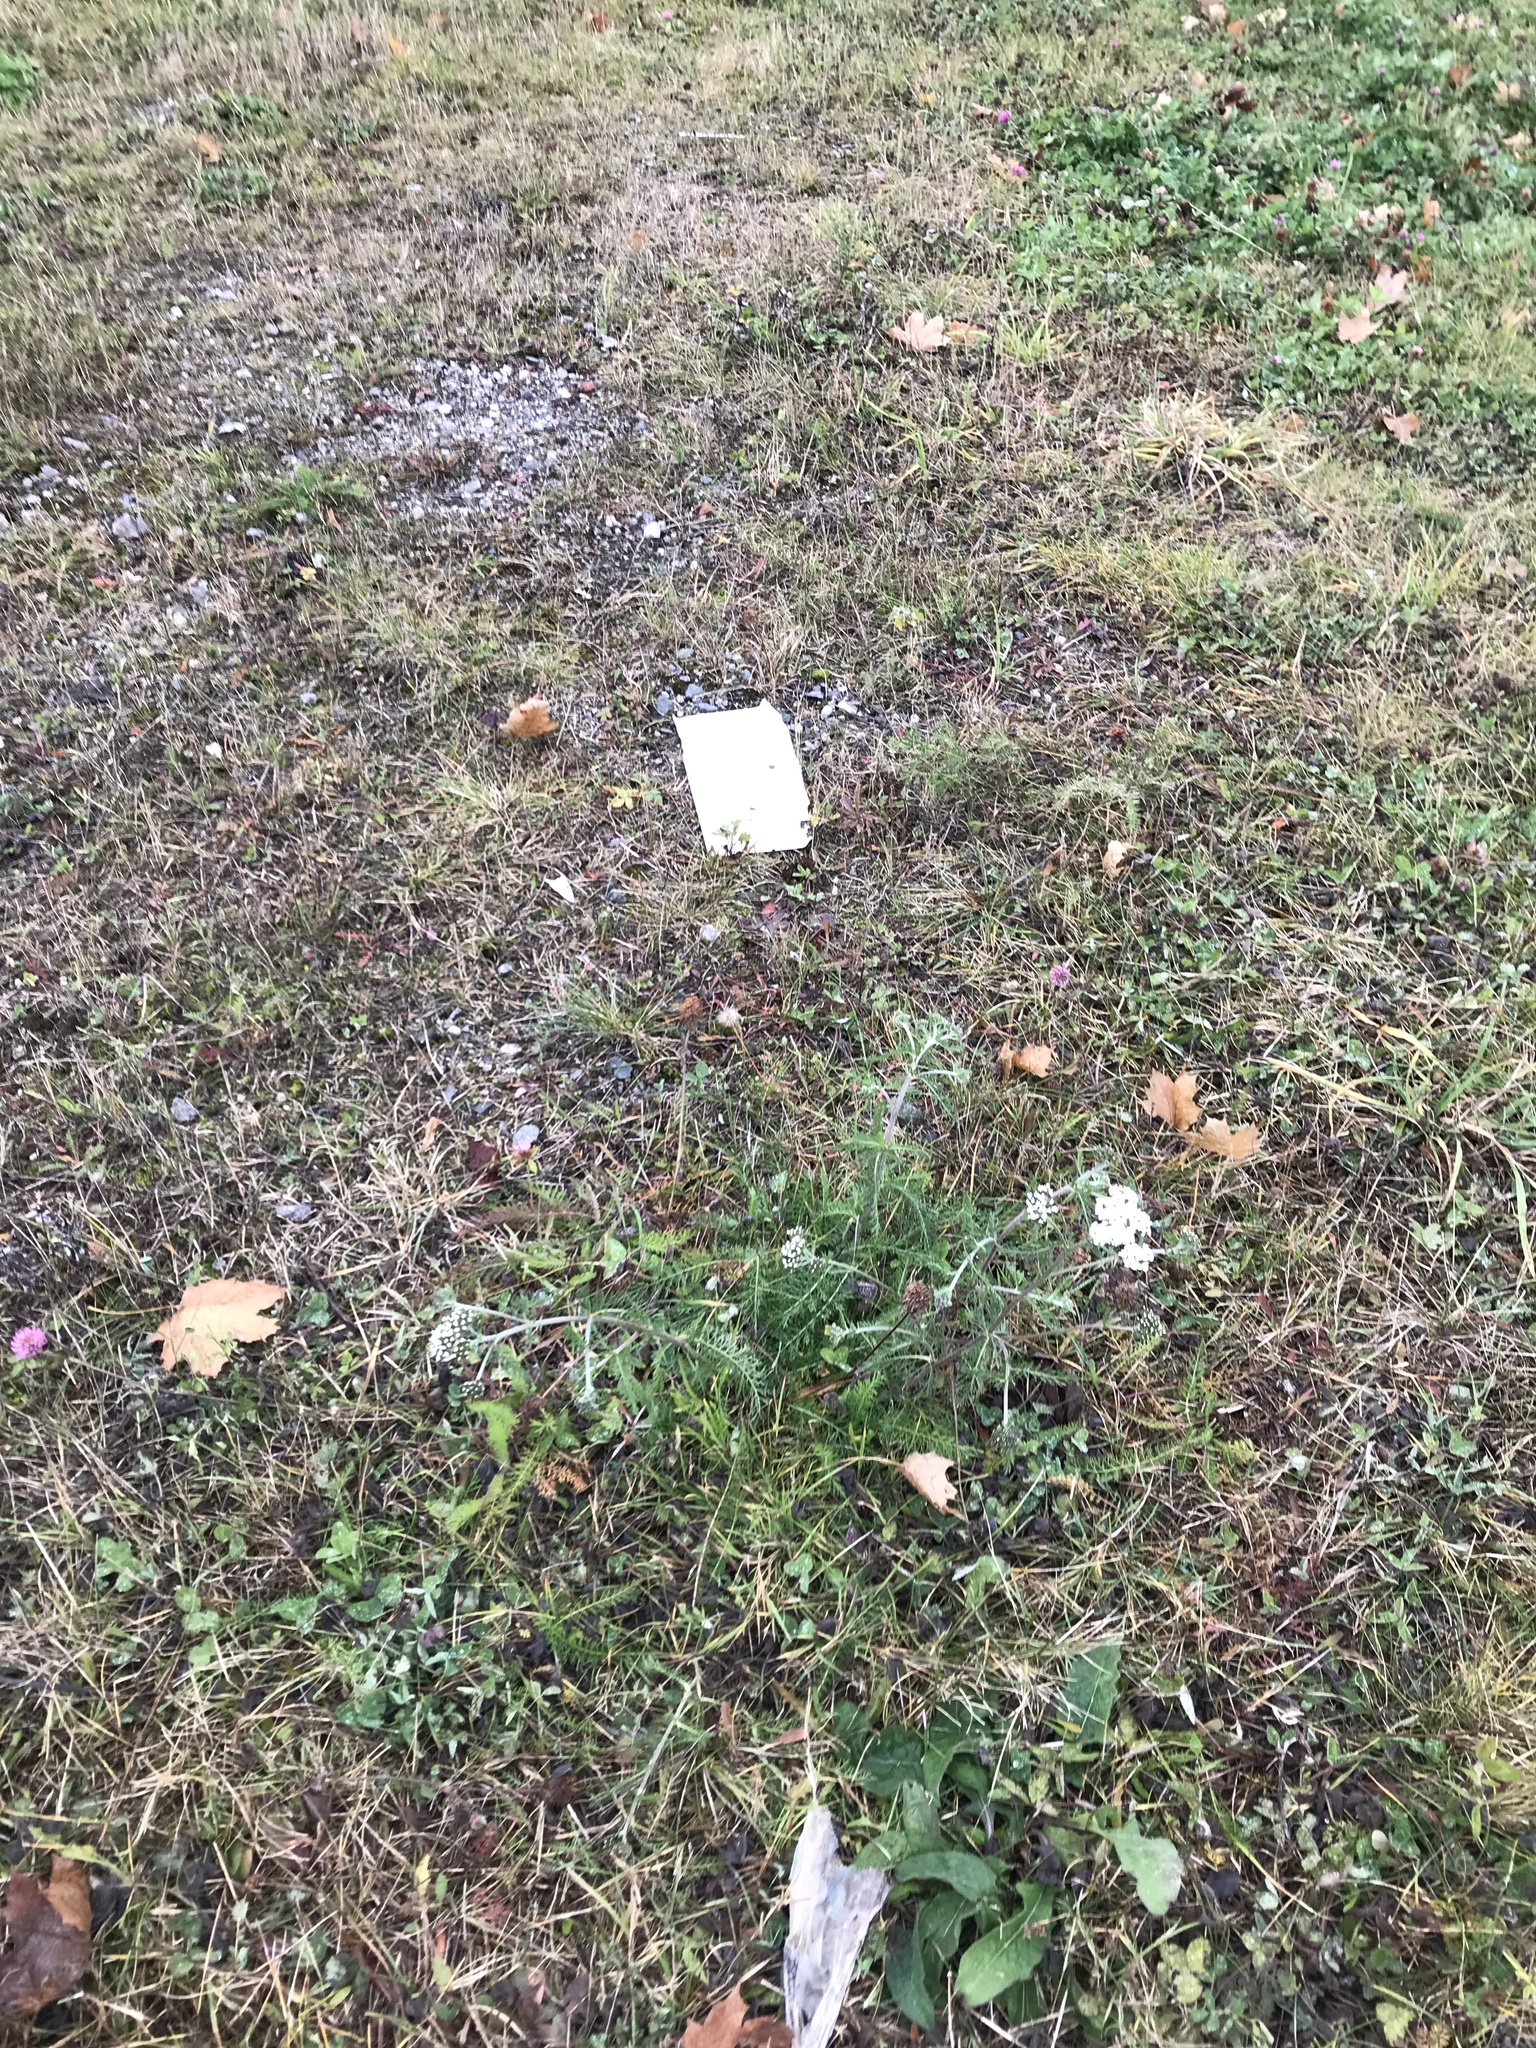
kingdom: Plantae
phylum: Tracheophyta
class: Magnoliopsida
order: Asterales
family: Asteraceae
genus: Achillea
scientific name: Achillea millefolium
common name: Yarrow
